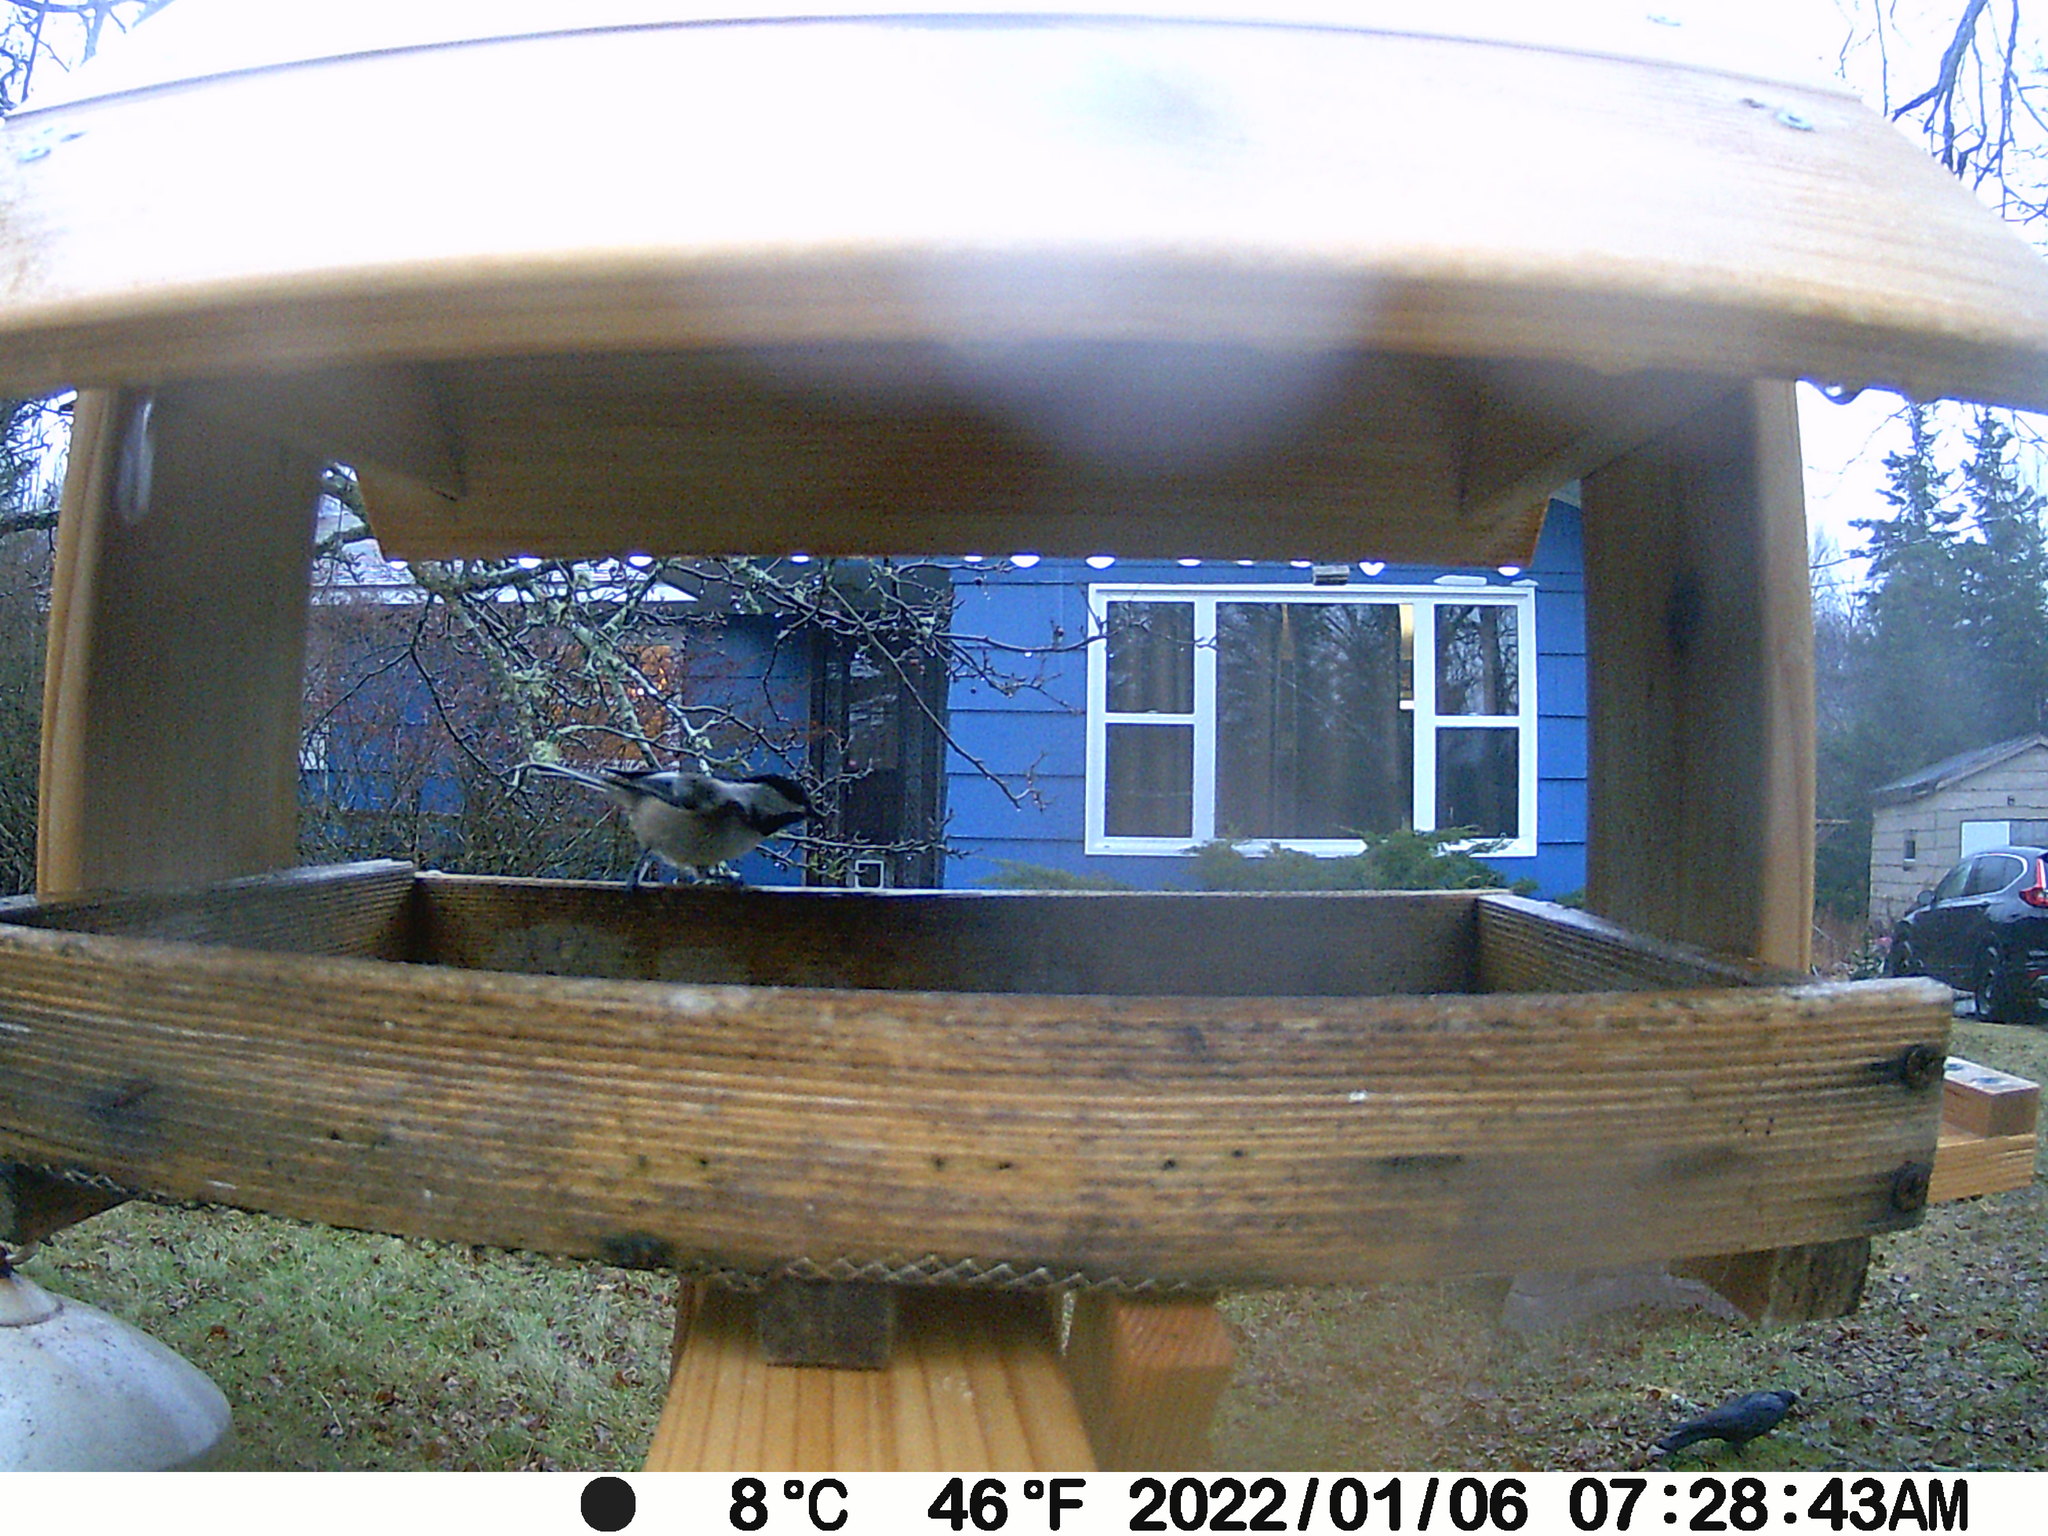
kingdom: Animalia
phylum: Chordata
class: Aves
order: Passeriformes
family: Paridae
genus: Poecile
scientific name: Poecile atricapillus
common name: Black-capped chickadee
